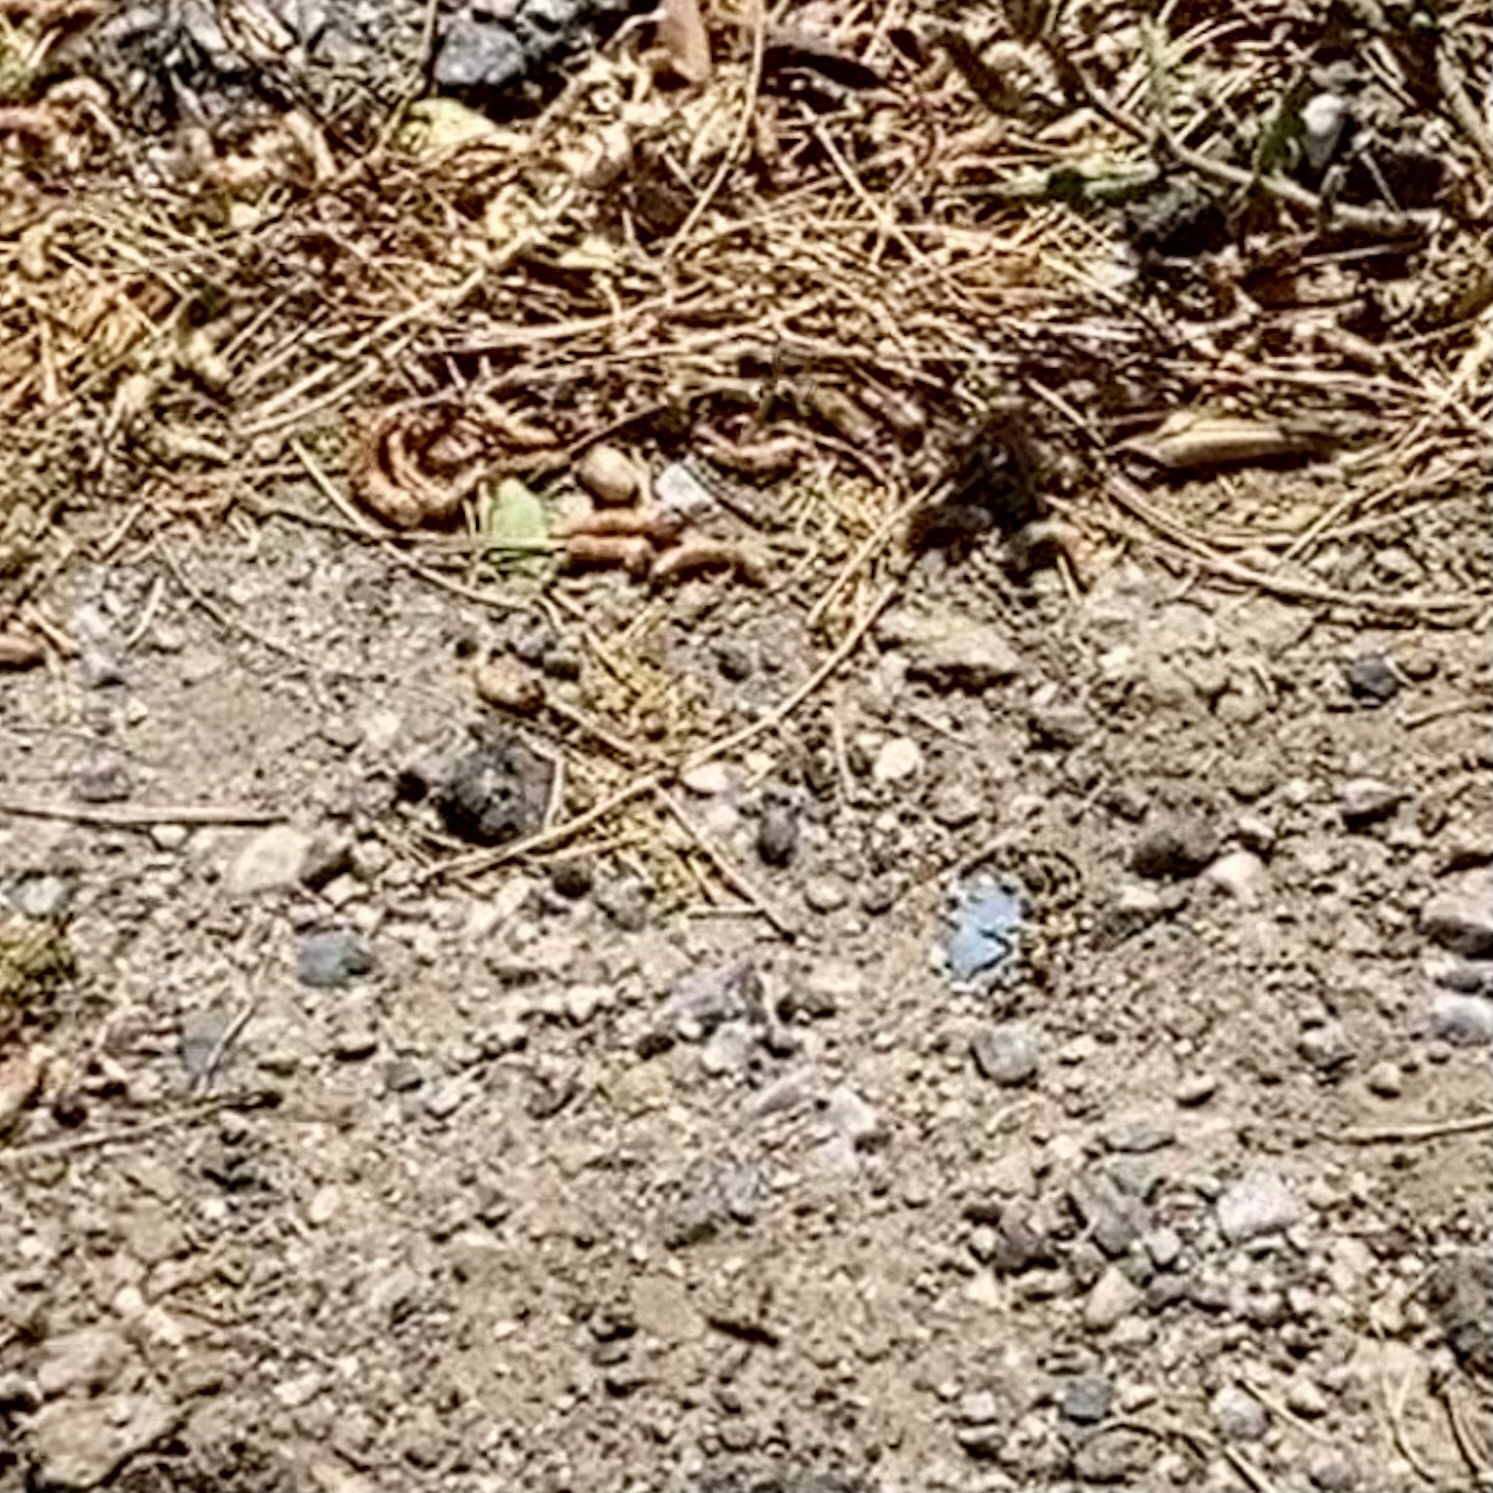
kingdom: Animalia
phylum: Arthropoda
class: Insecta
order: Hymenoptera
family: Masaridae
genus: Pseudomasaris
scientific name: Pseudomasaris
